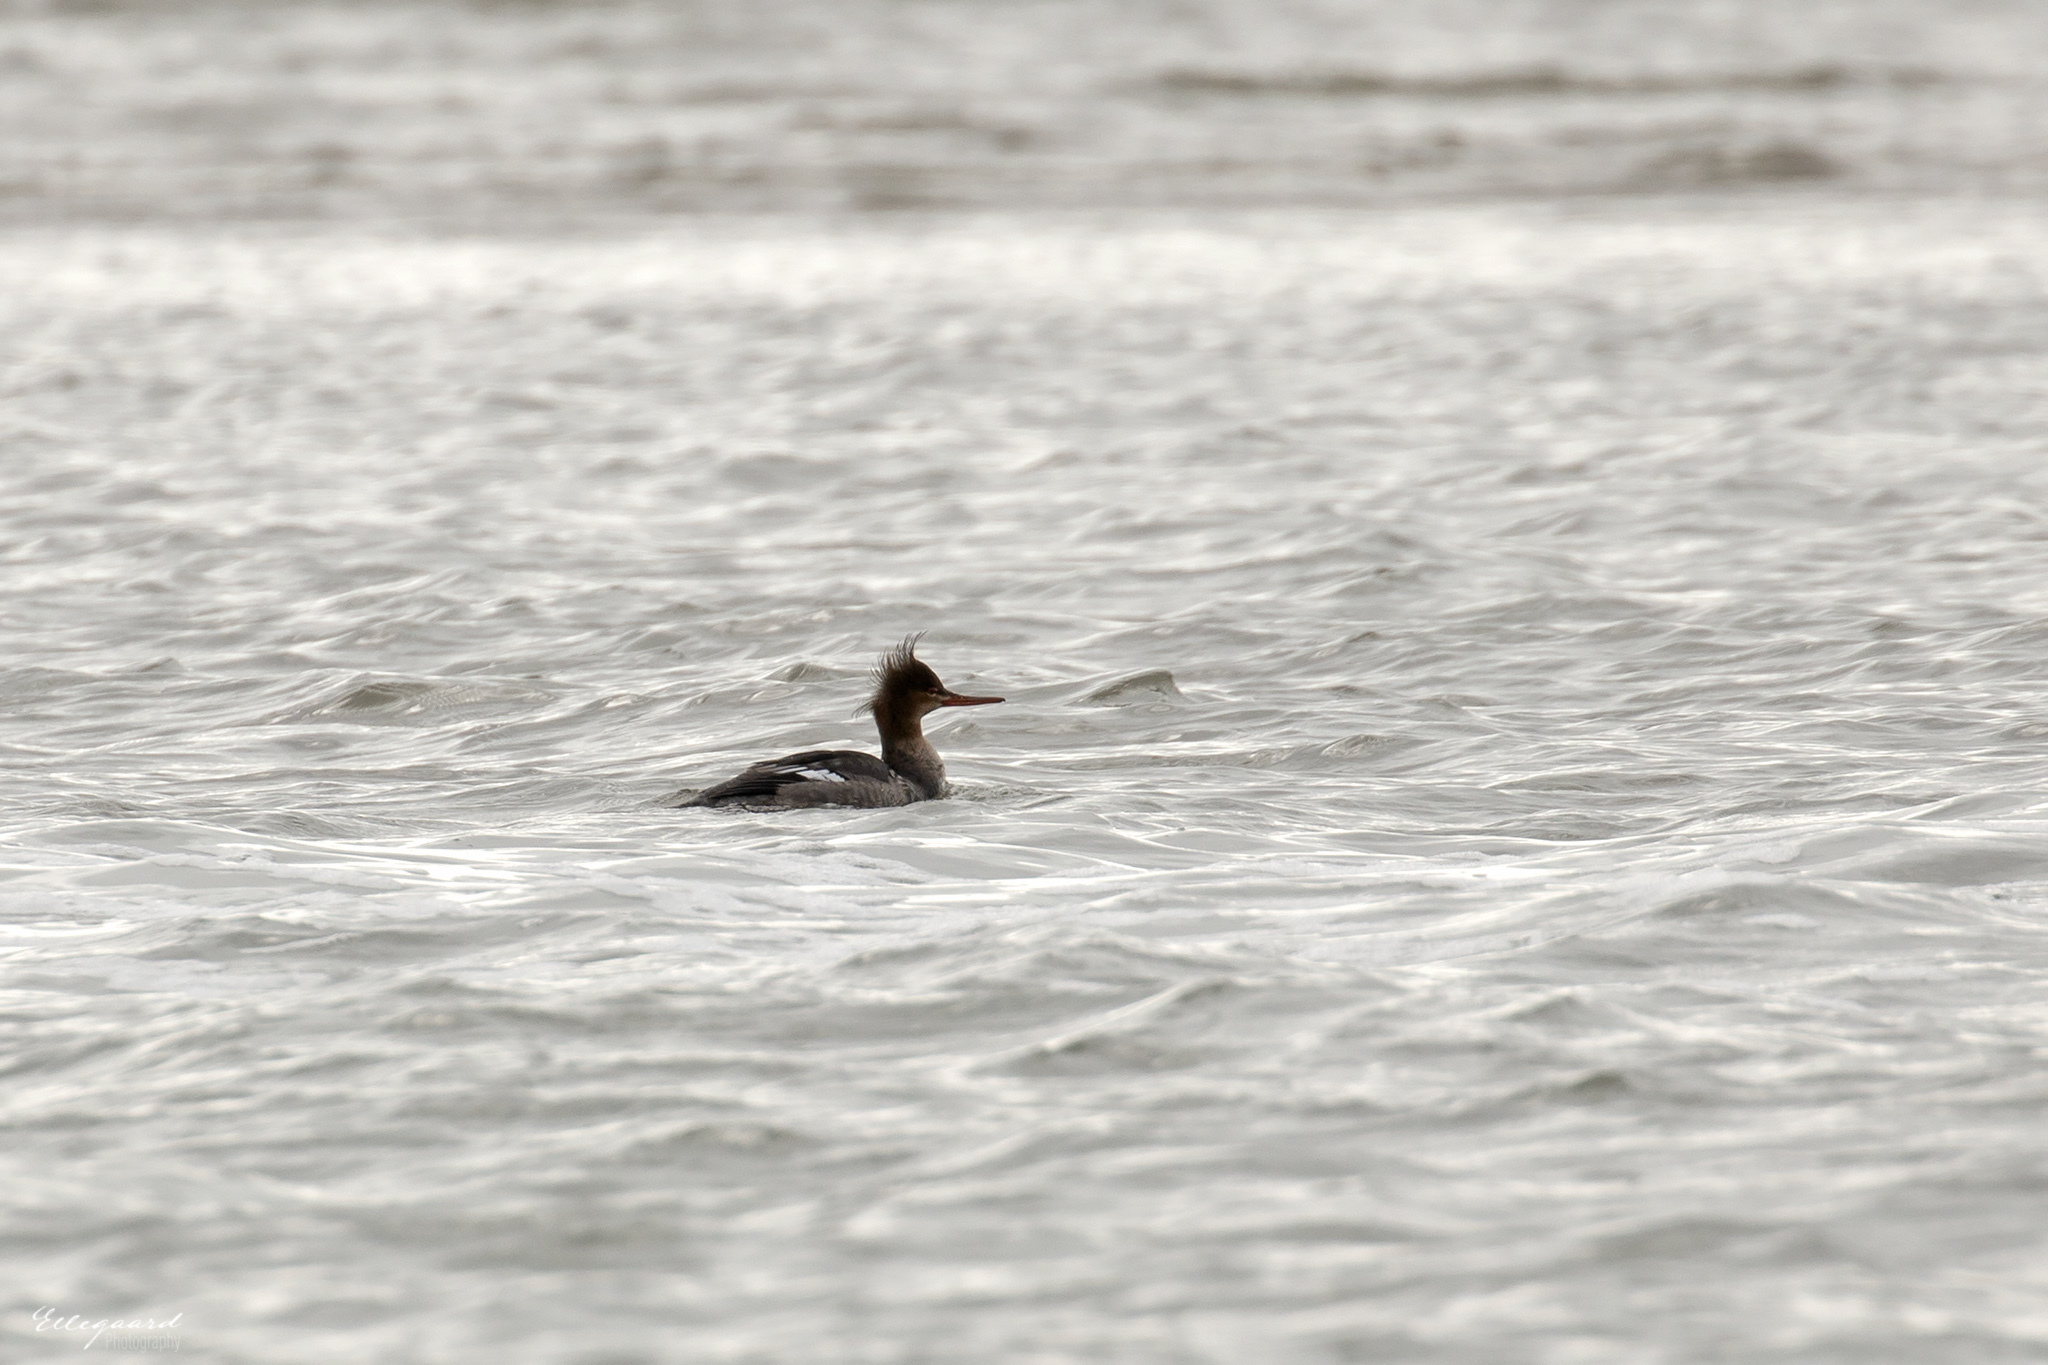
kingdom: Animalia
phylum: Chordata
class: Aves
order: Anseriformes
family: Anatidae
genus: Mergus
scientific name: Mergus serrator
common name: Red-breasted merganser
